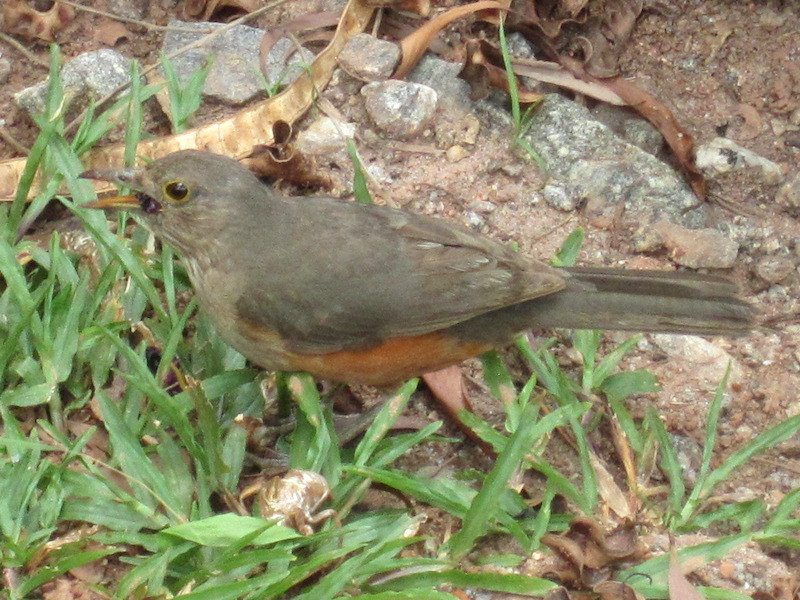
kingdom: Animalia
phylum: Chordata
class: Aves
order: Passeriformes
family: Turdidae
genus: Turdus
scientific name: Turdus rufiventris
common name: Rufous-bellied thrush
